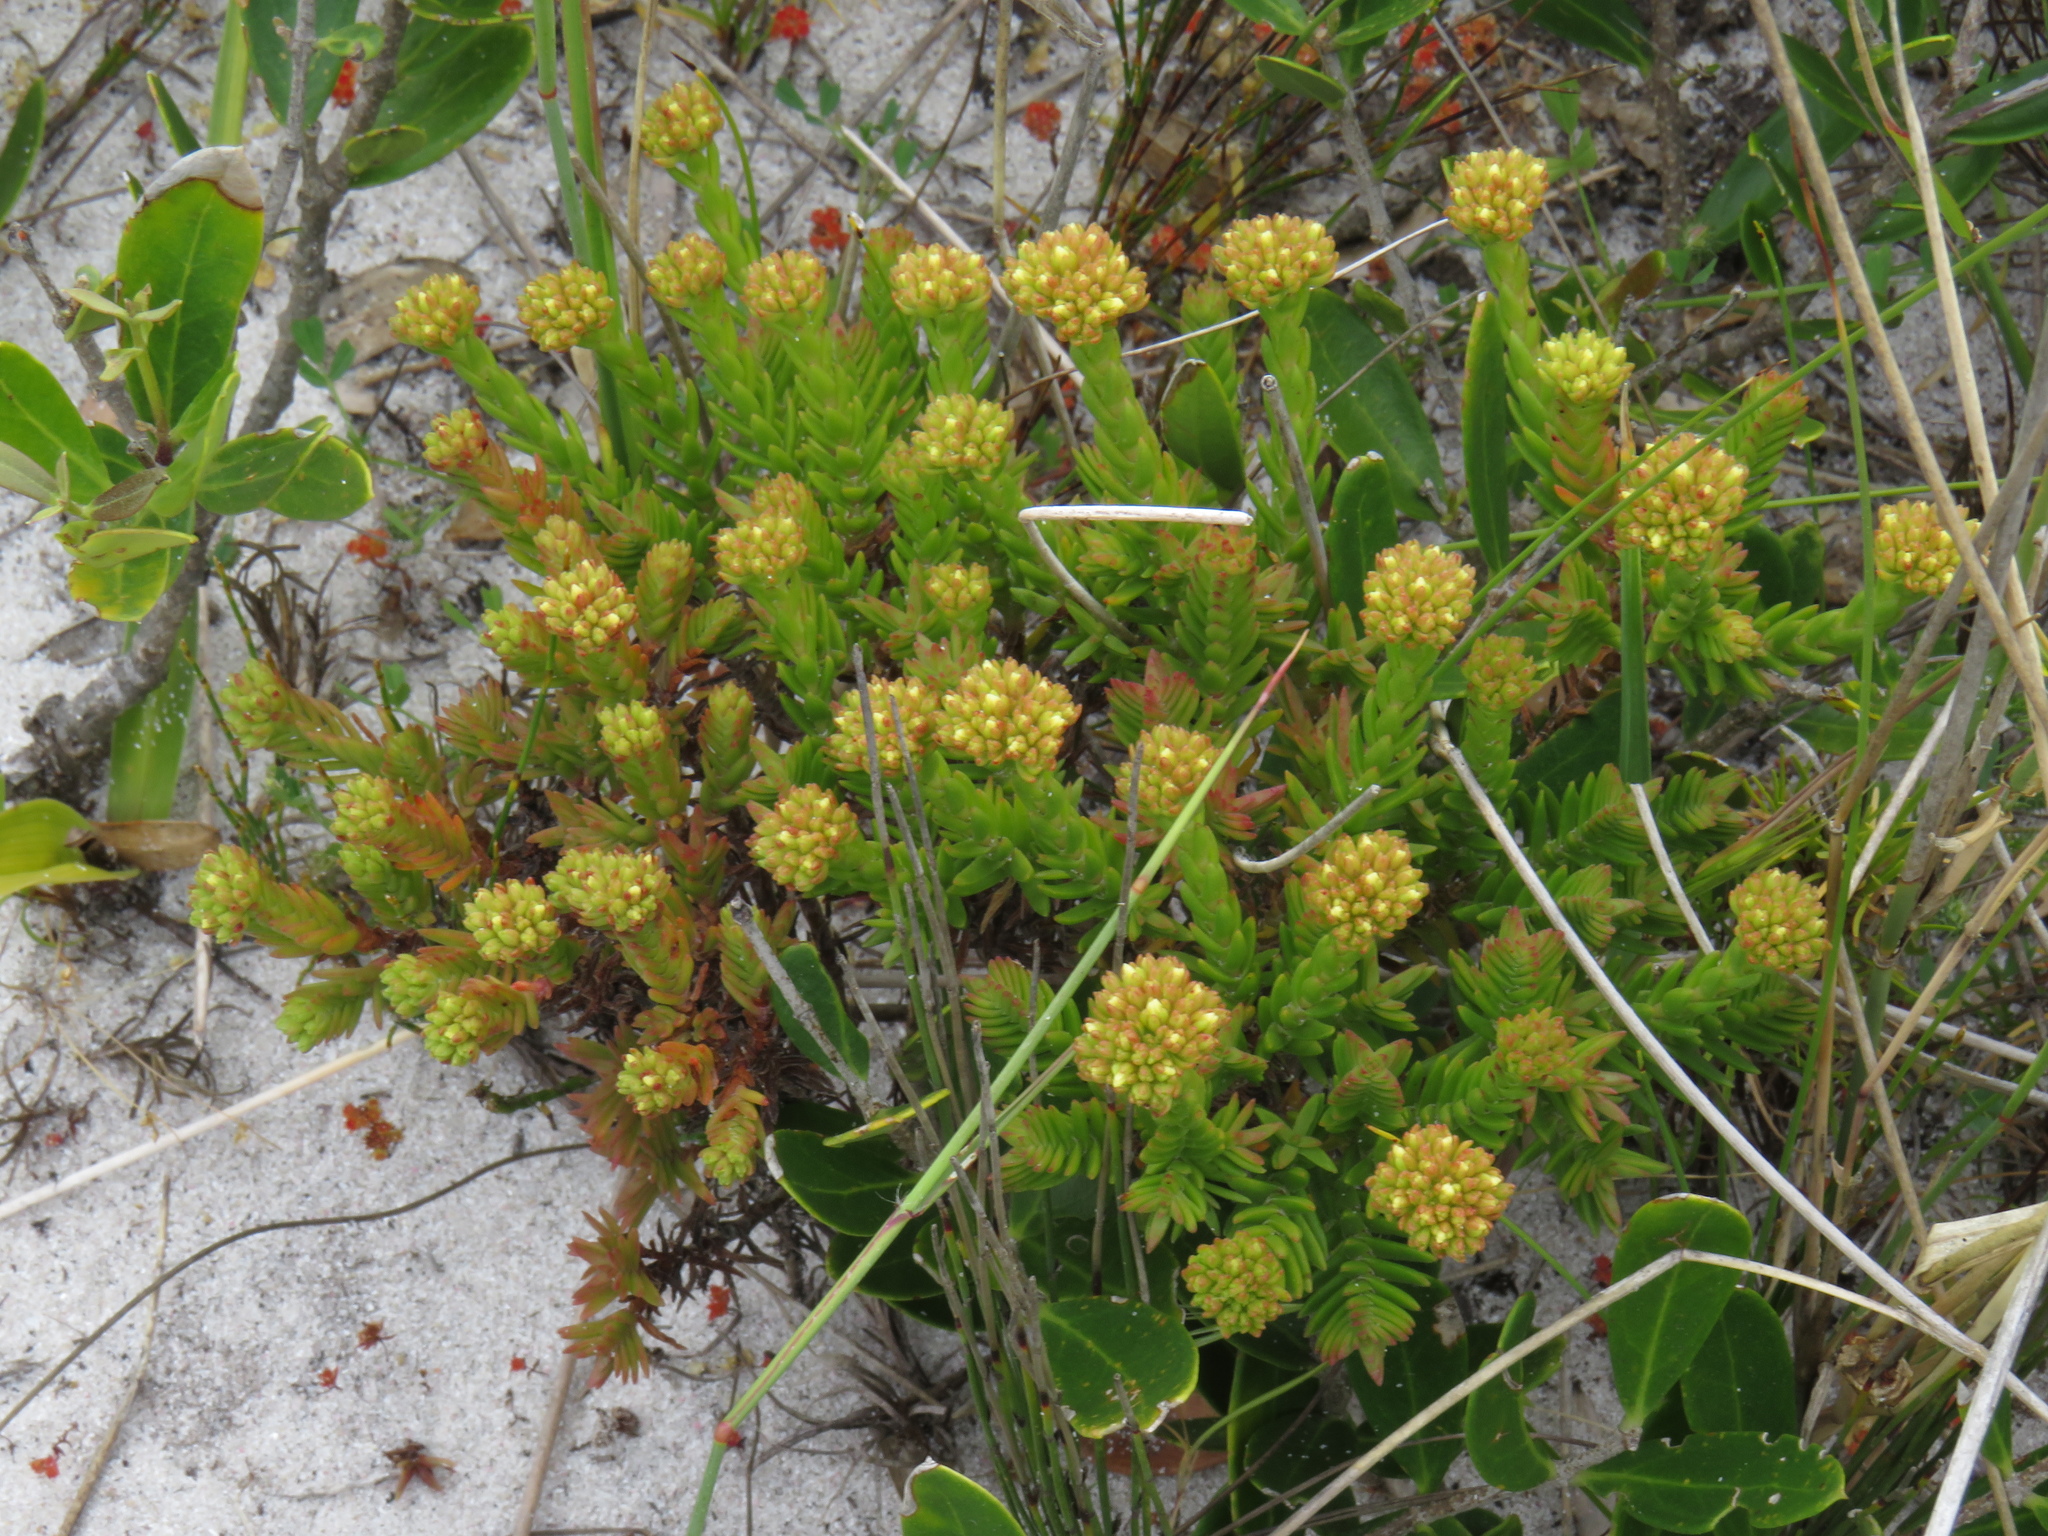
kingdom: Plantae
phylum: Tracheophyta
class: Magnoliopsida
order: Saxifragales
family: Crassulaceae
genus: Crassula
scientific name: Crassula flava
